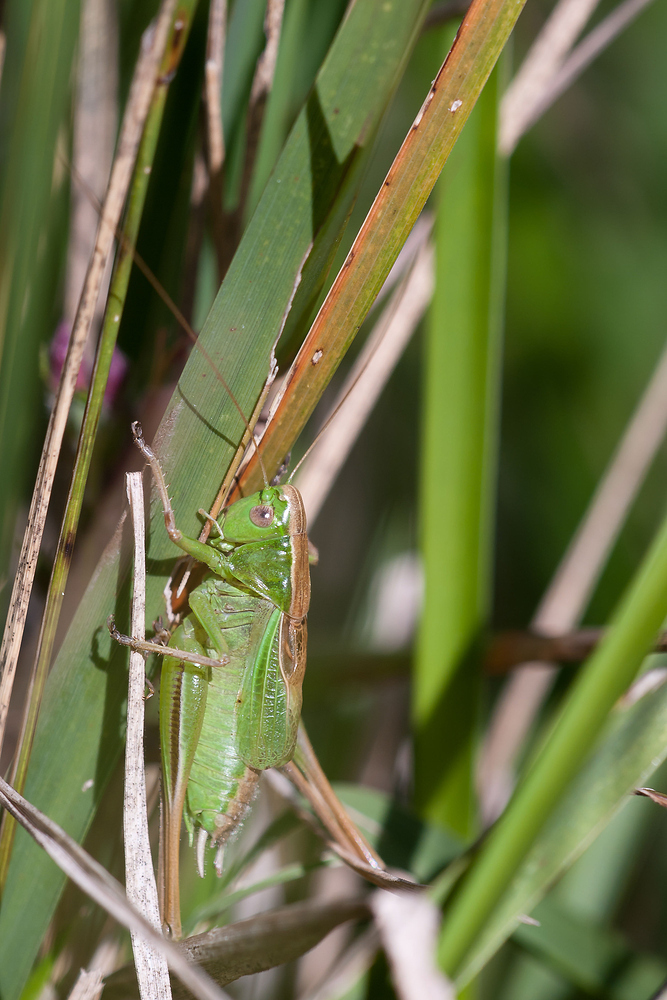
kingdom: Animalia
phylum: Arthropoda
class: Insecta
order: Orthoptera
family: Tettigoniidae
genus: Bicolorana
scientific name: Bicolorana bicolor
